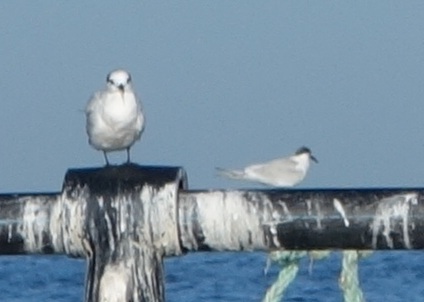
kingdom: Animalia
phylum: Chordata
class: Aves
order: Charadriiformes
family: Laridae
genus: Thalasseus
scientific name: Thalasseus sandvicensis
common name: Sandwich tern
